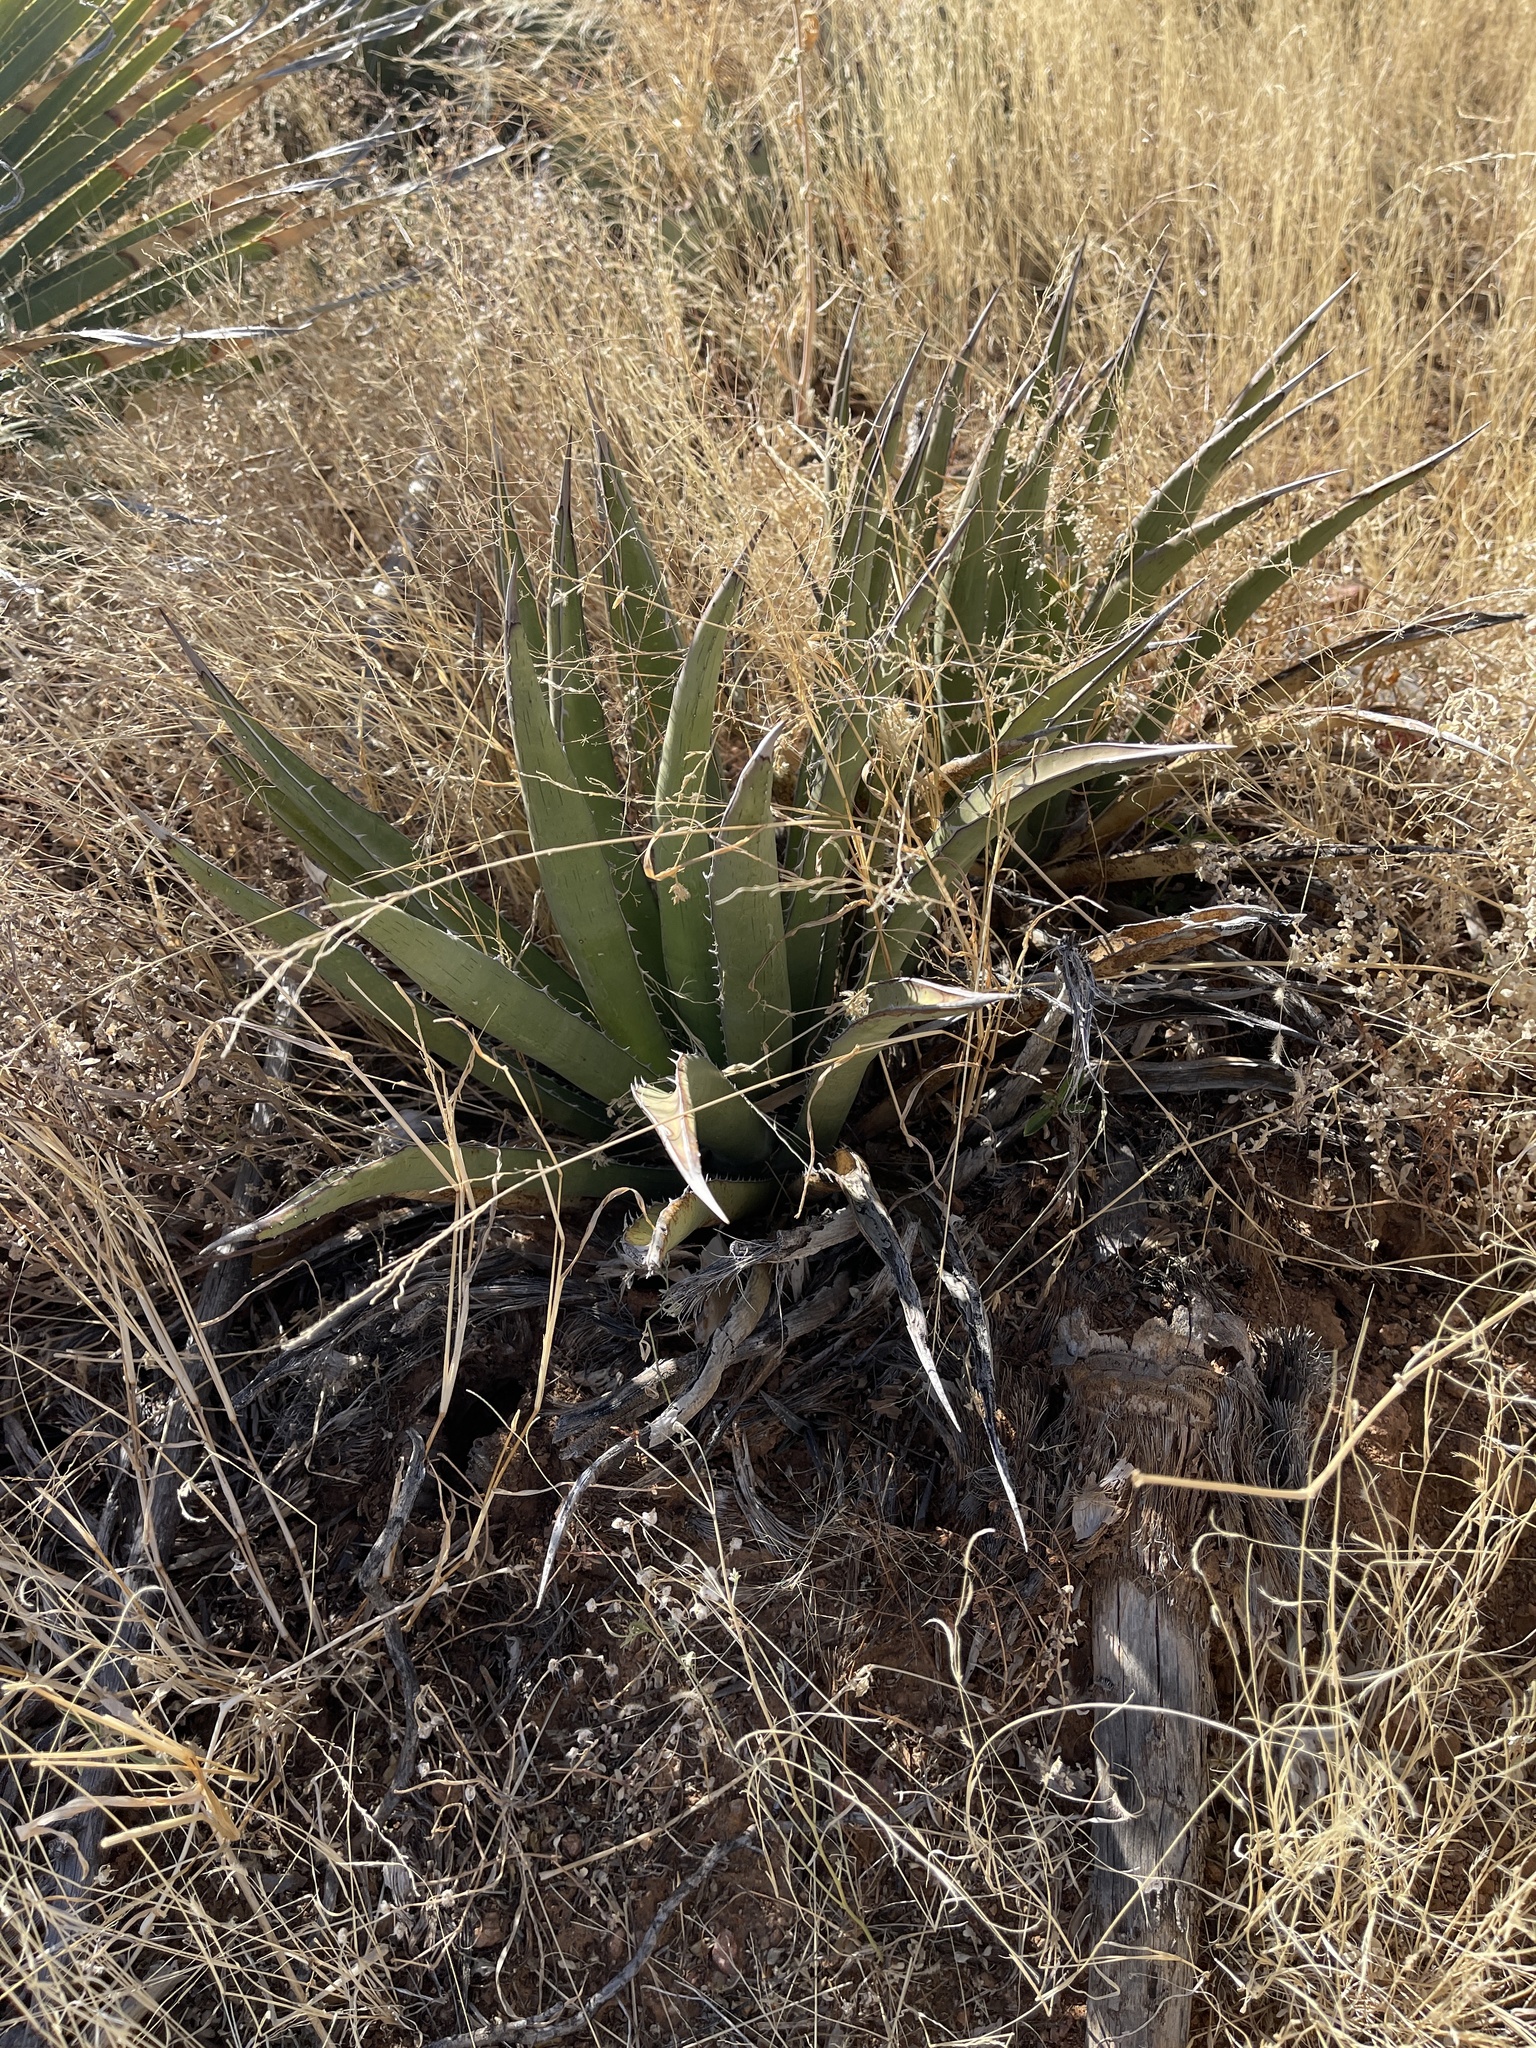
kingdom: Plantae
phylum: Tracheophyta
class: Liliopsida
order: Asparagales
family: Asparagaceae
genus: Agave
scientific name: Agave lechuguilla
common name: Lecheguilla agave
